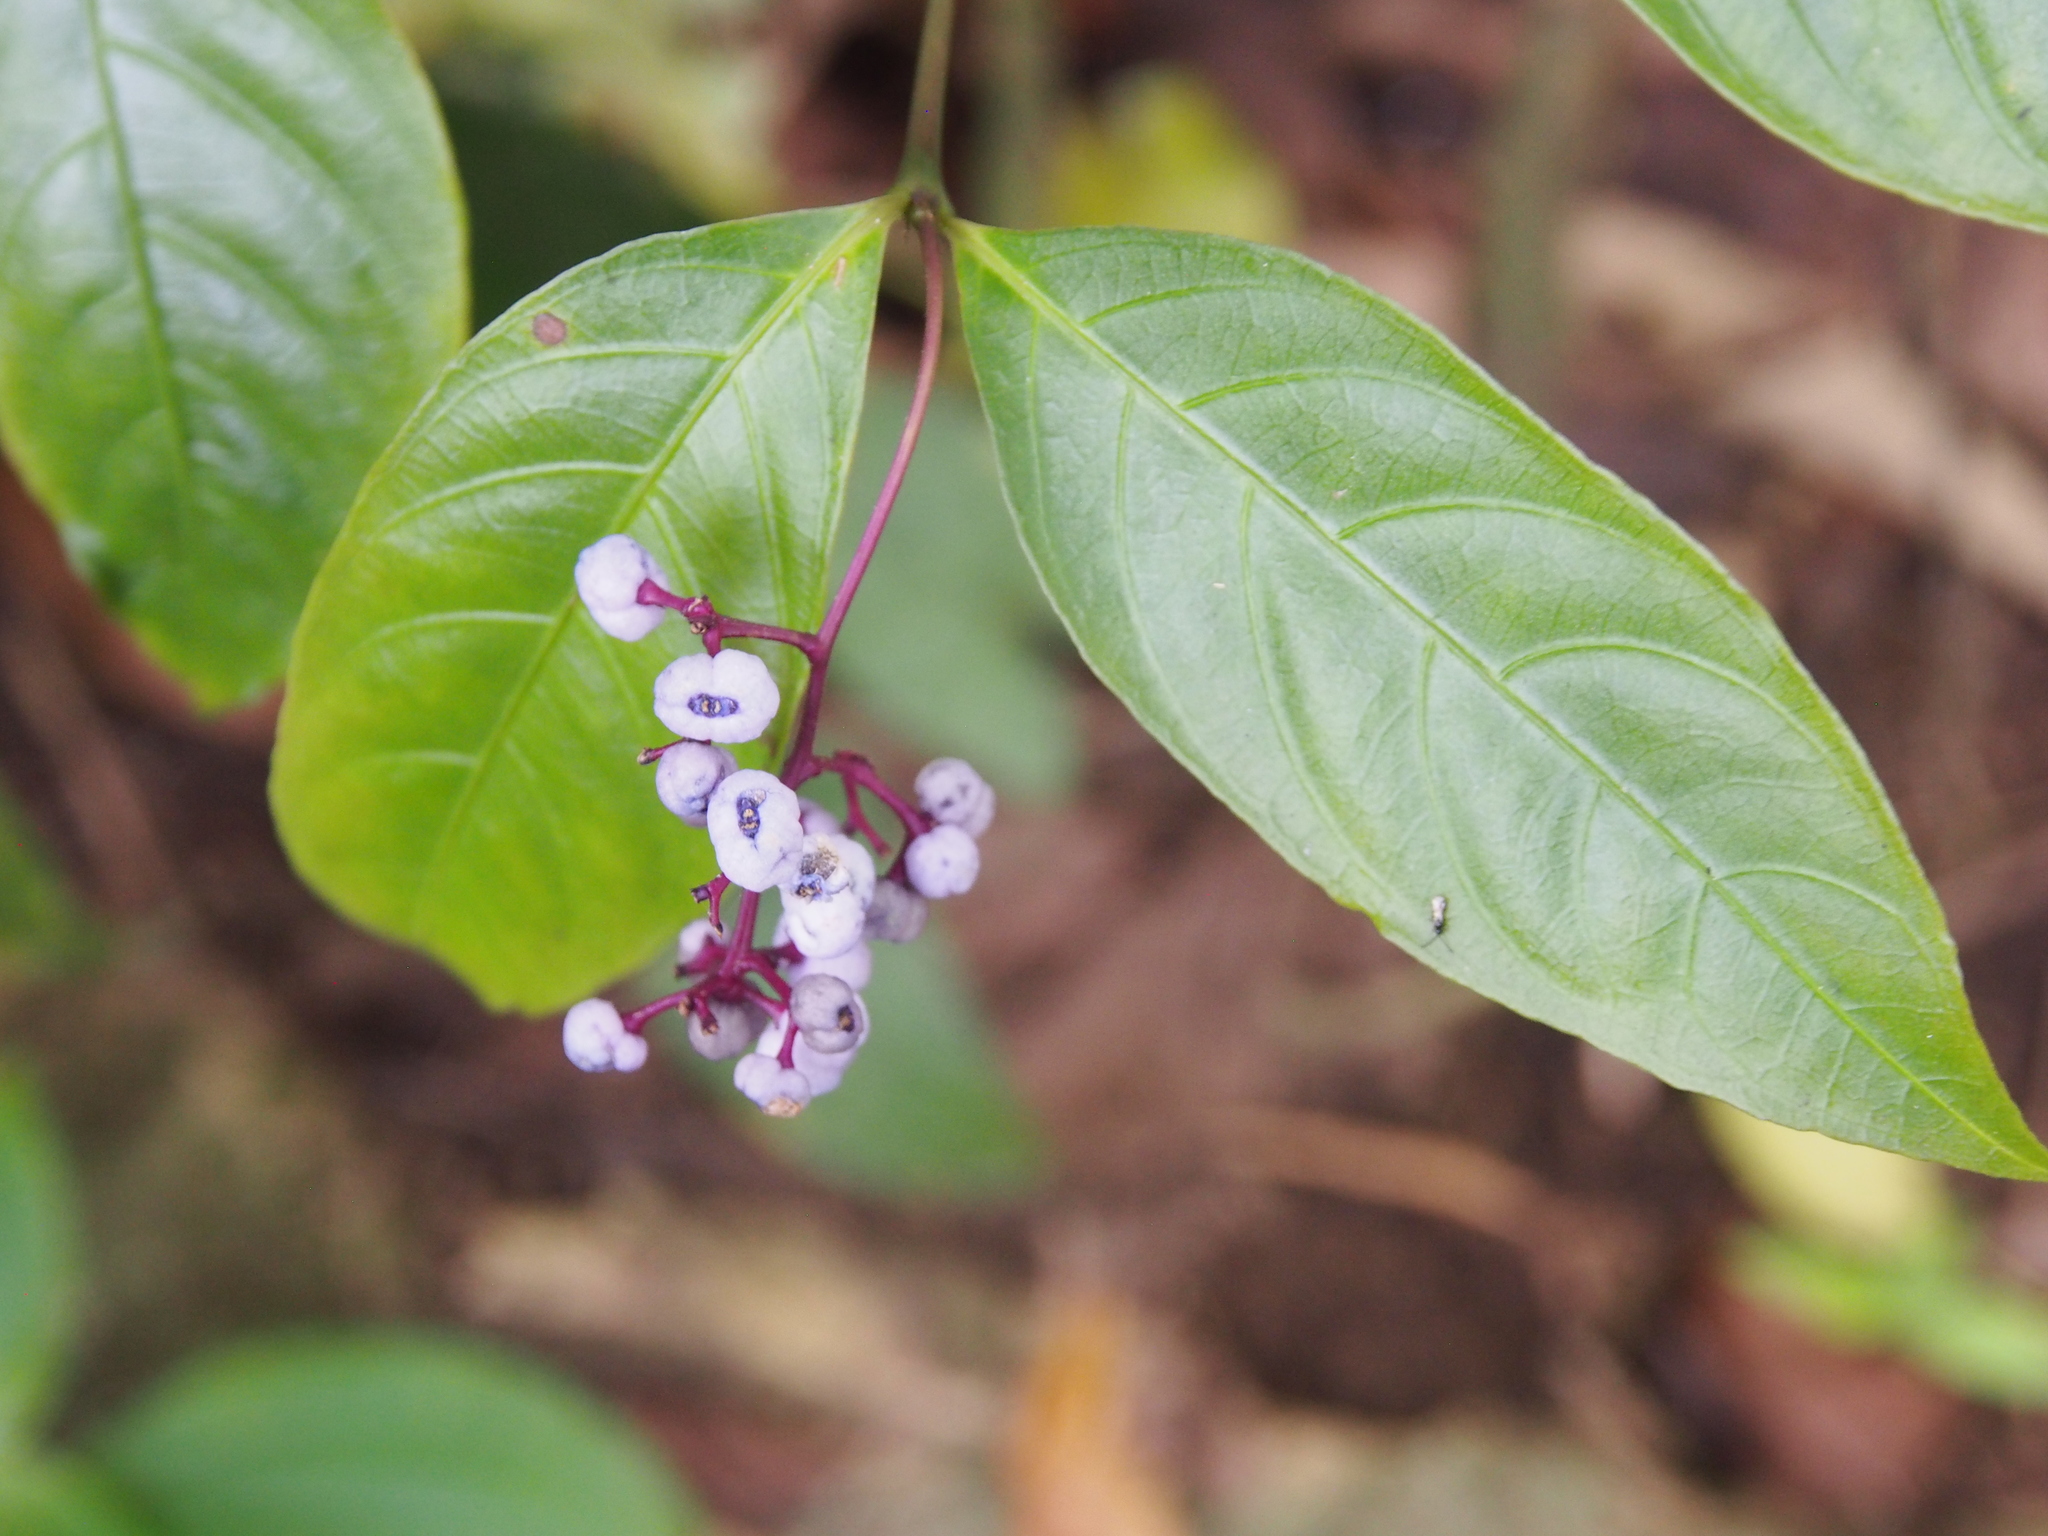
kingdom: Plantae
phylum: Tracheophyta
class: Magnoliopsida
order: Gentianales
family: Rubiaceae
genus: Palicourea
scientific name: Palicourea deflexa
